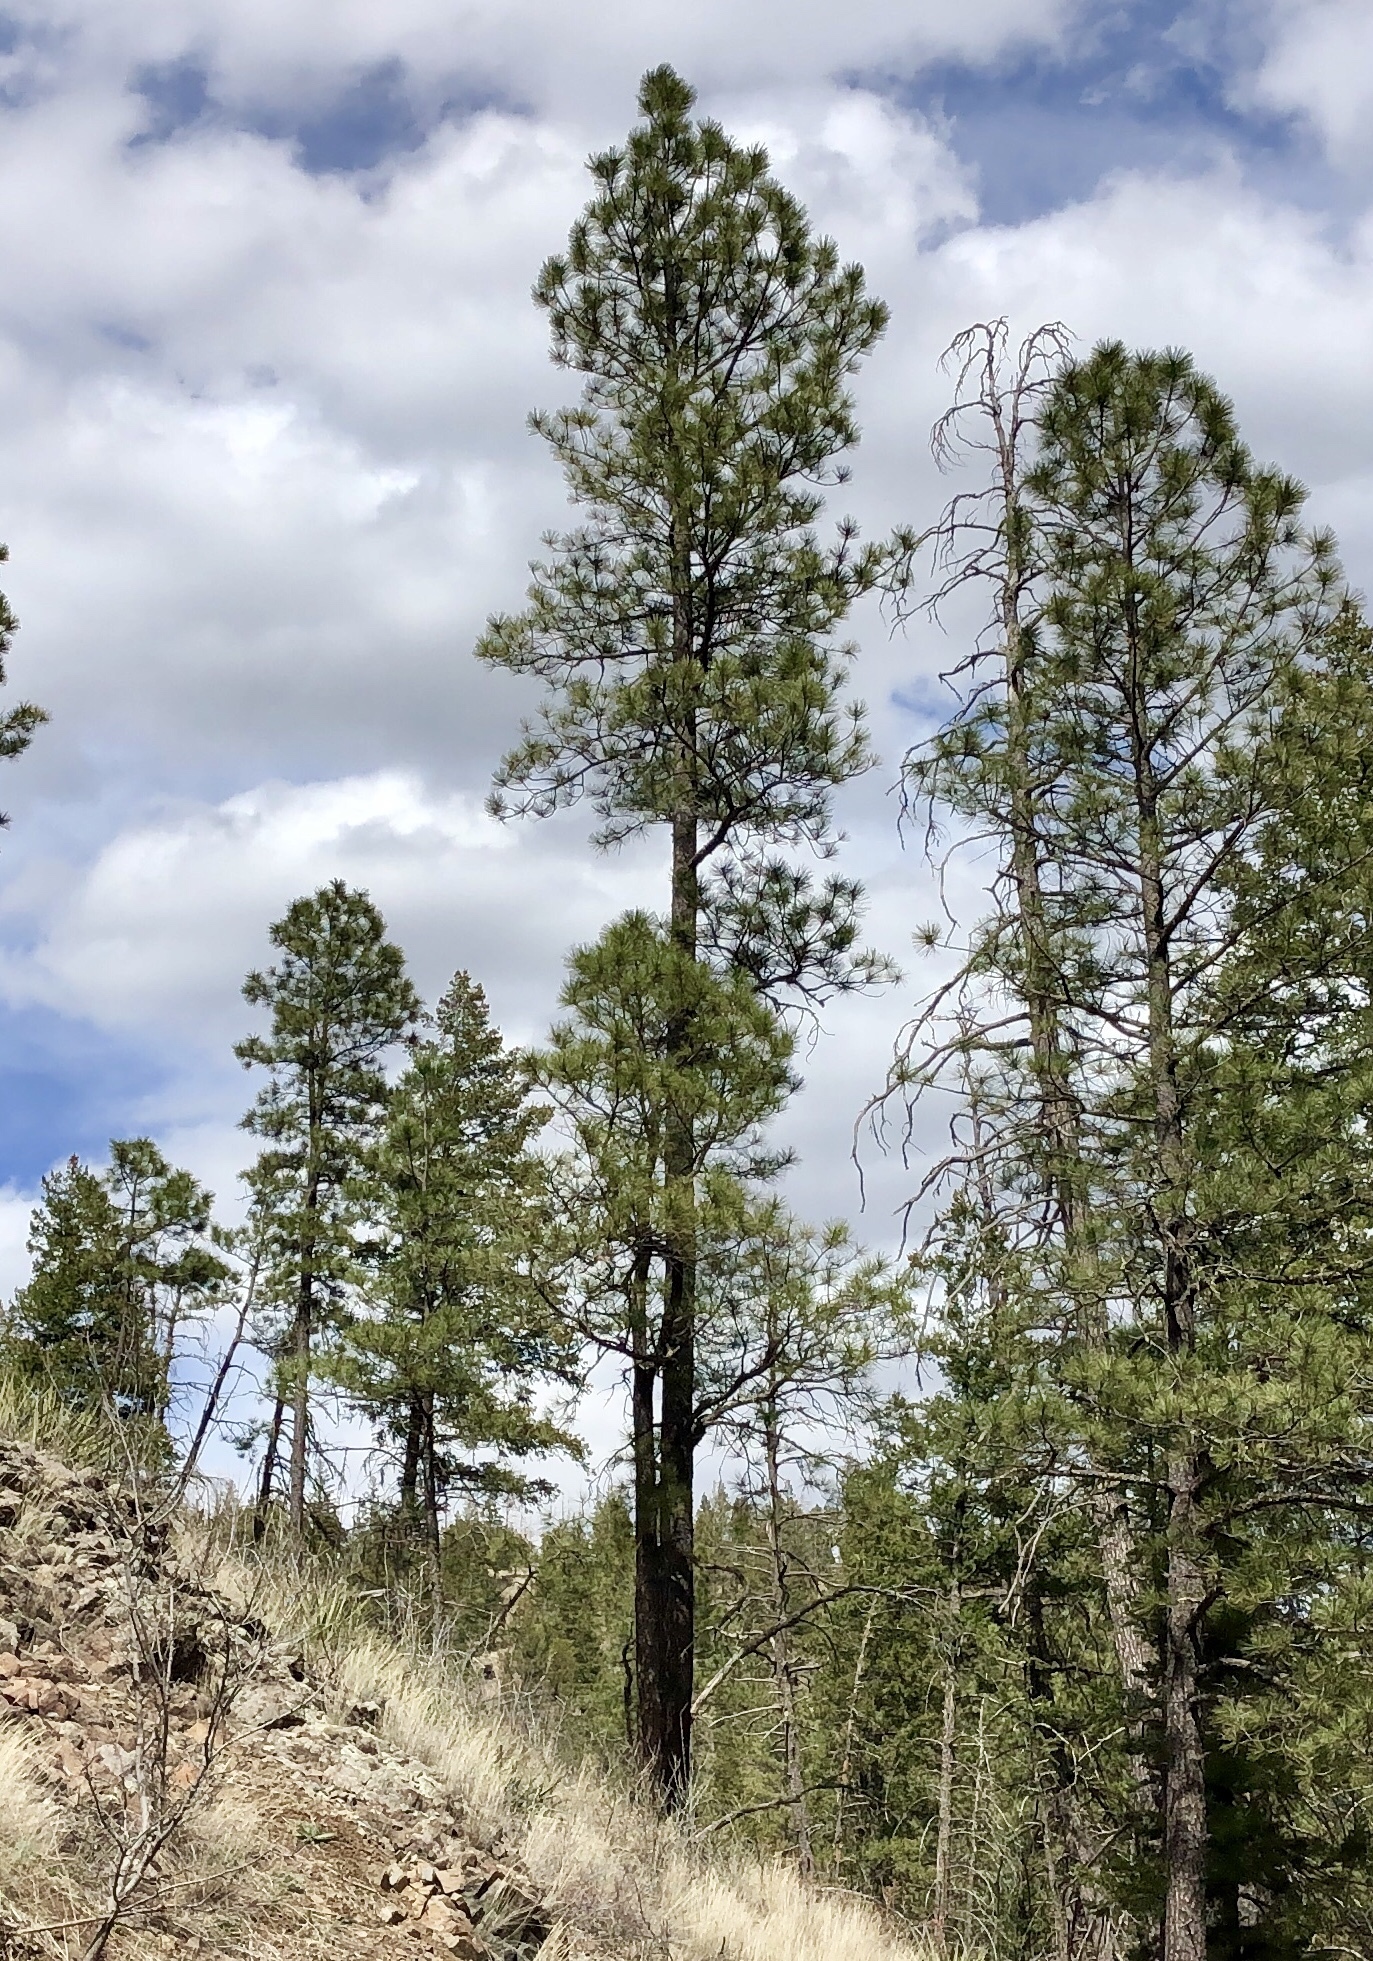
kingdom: Plantae
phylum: Tracheophyta
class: Pinopsida
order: Pinales
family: Pinaceae
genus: Pinus
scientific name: Pinus ponderosa
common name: Western yellow-pine
